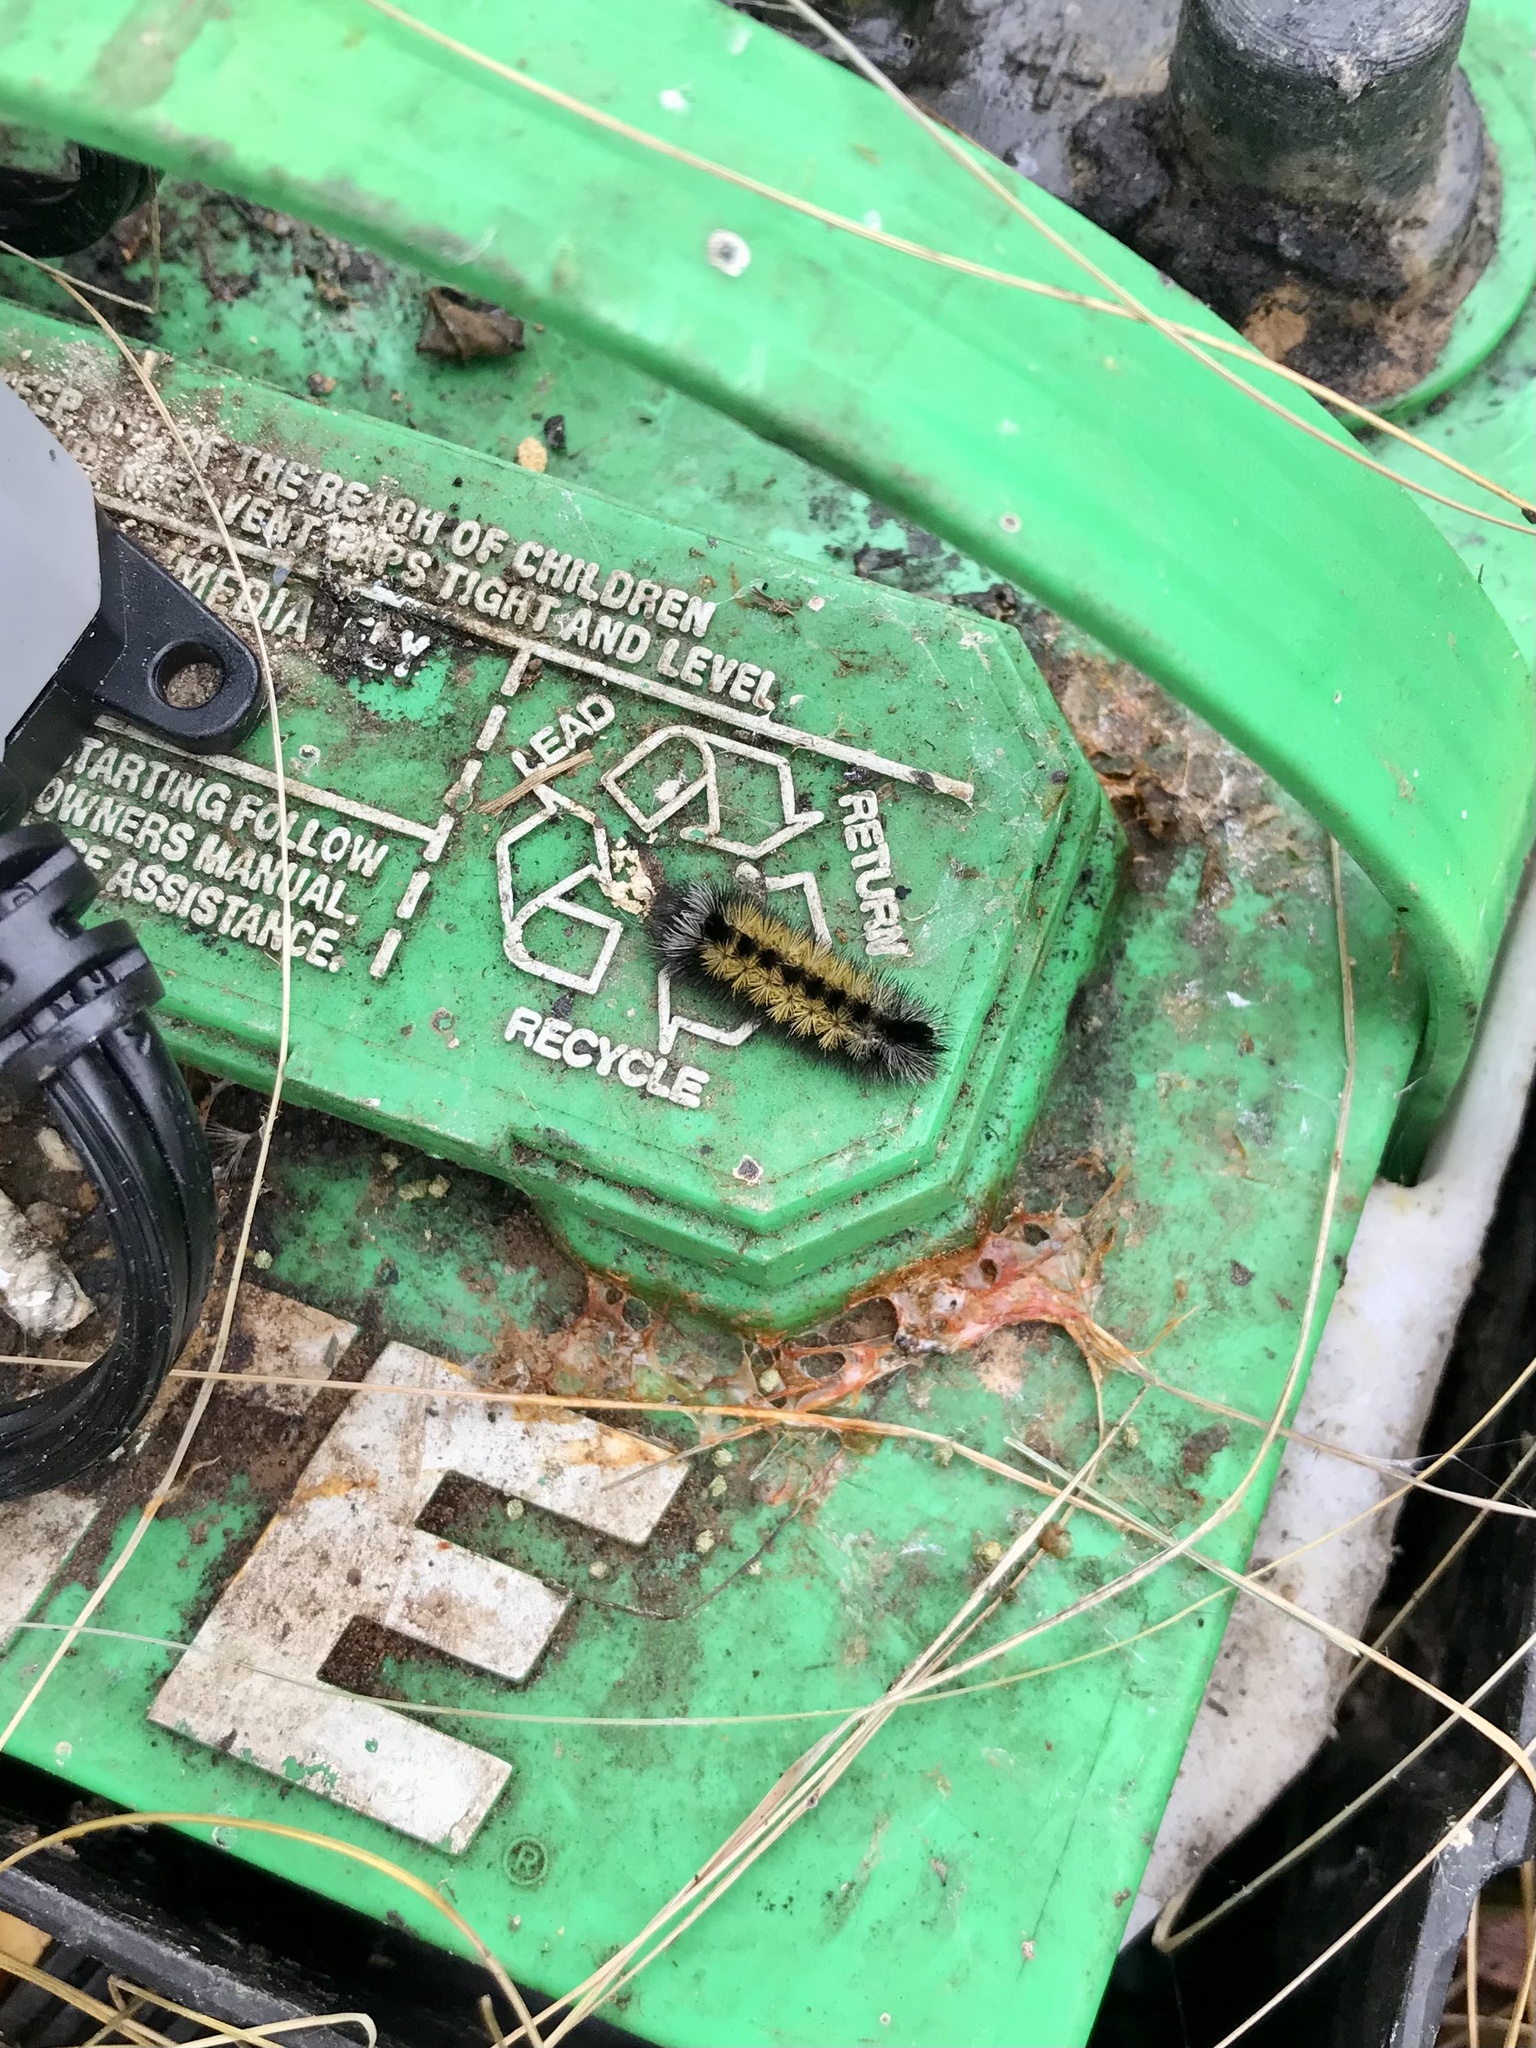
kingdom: Animalia
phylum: Arthropoda
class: Insecta
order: Lepidoptera
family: Erebidae
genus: Ctenucha
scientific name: Ctenucha virginica
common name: Virginia ctenucha moth
